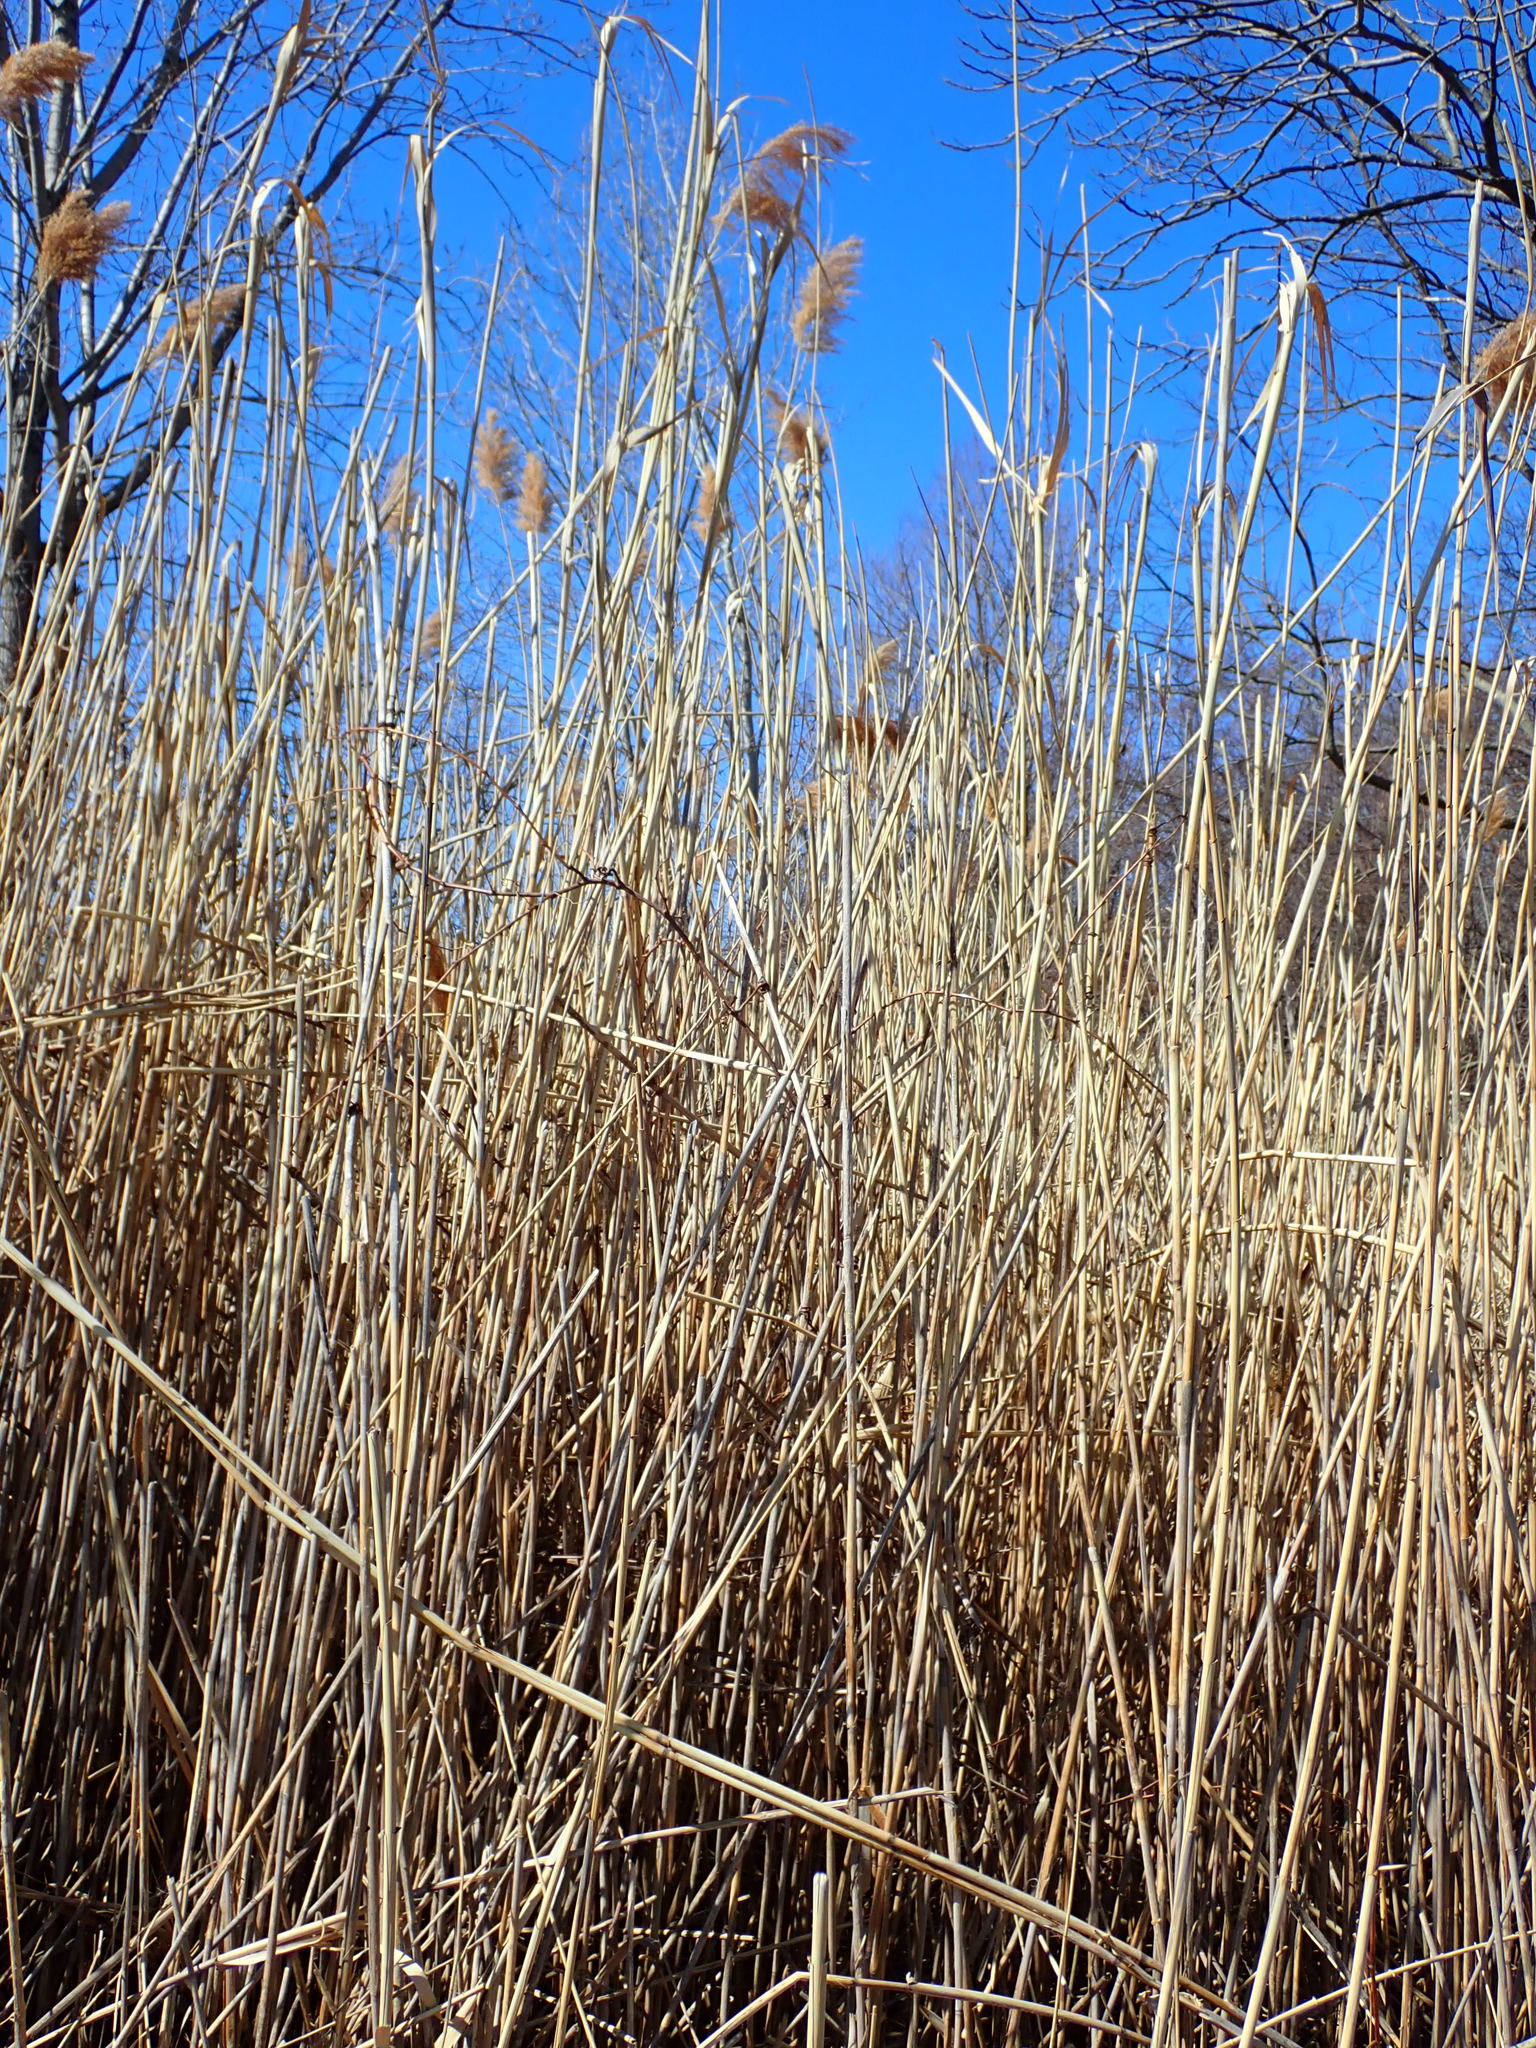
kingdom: Plantae
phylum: Tracheophyta
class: Liliopsida
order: Poales
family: Poaceae
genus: Phragmites
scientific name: Phragmites australis
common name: Common reed
